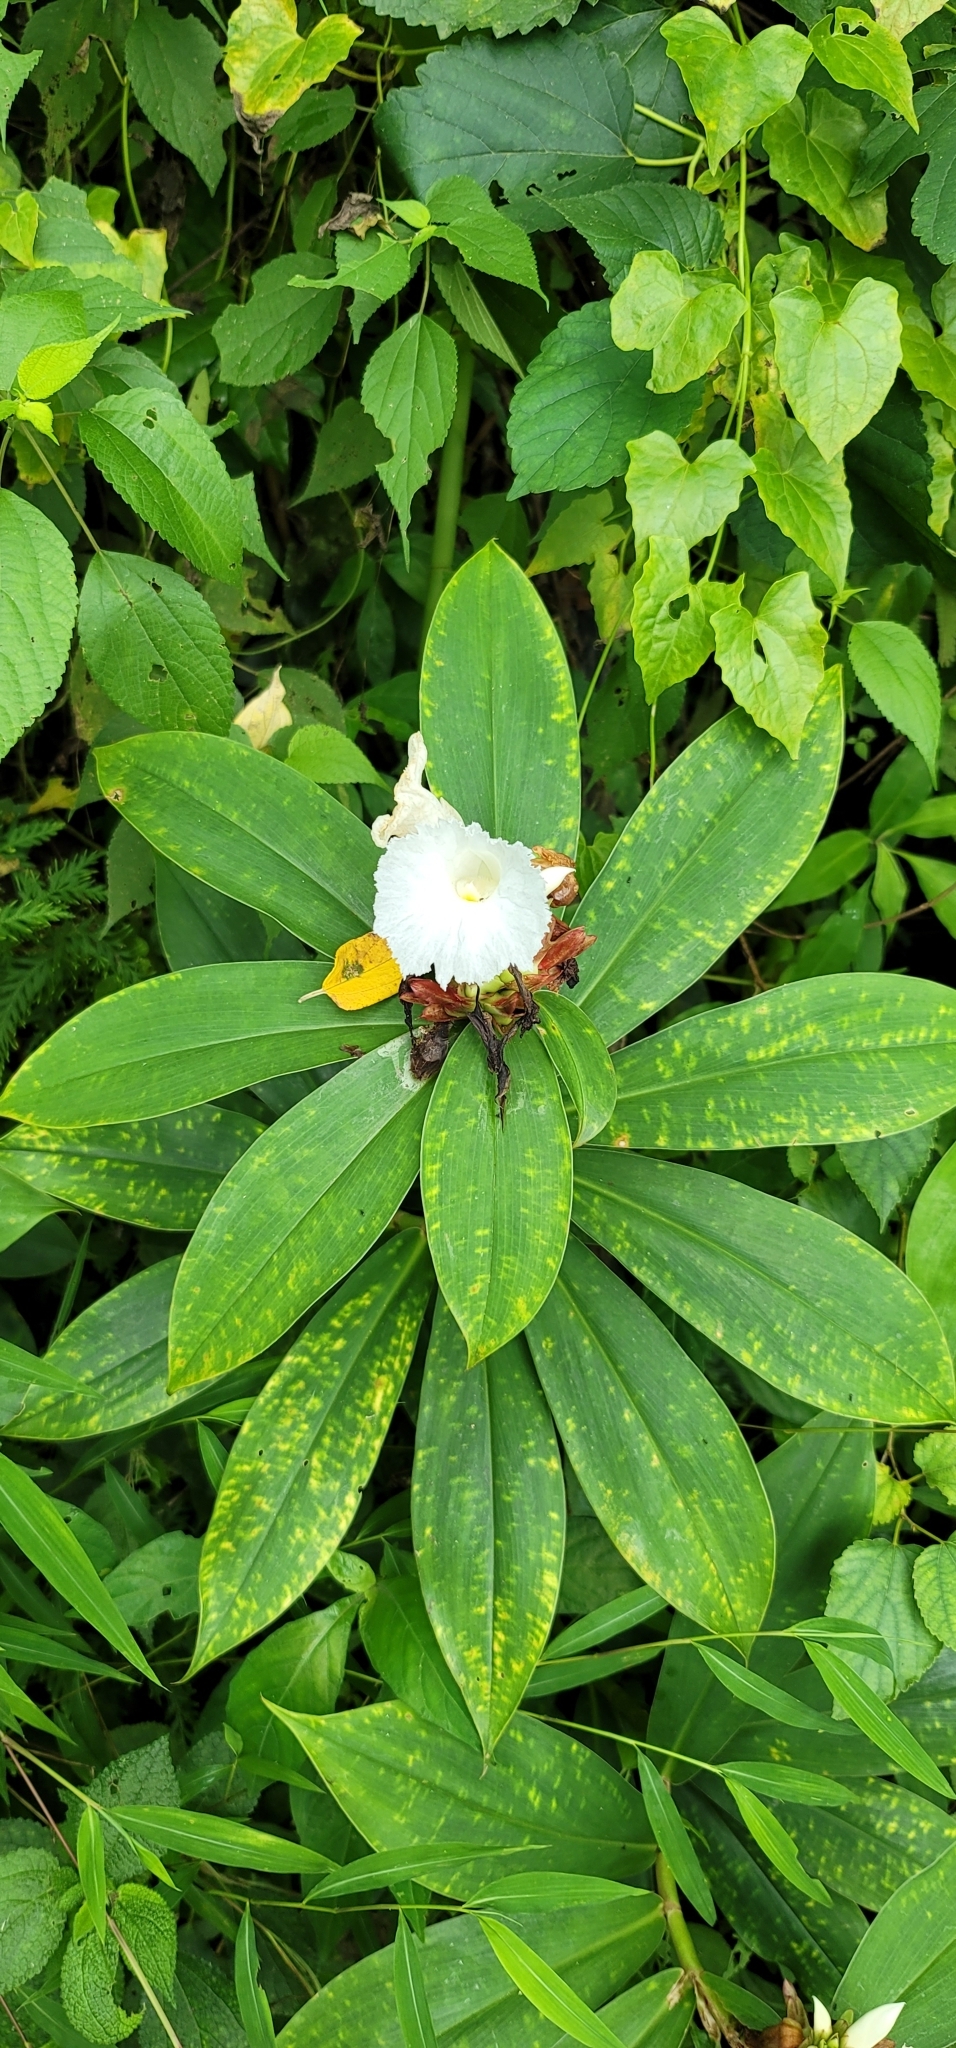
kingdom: Plantae
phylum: Tracheophyta
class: Liliopsida
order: Zingiberales
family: Costaceae
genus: Hellenia
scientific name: Hellenia speciosa
